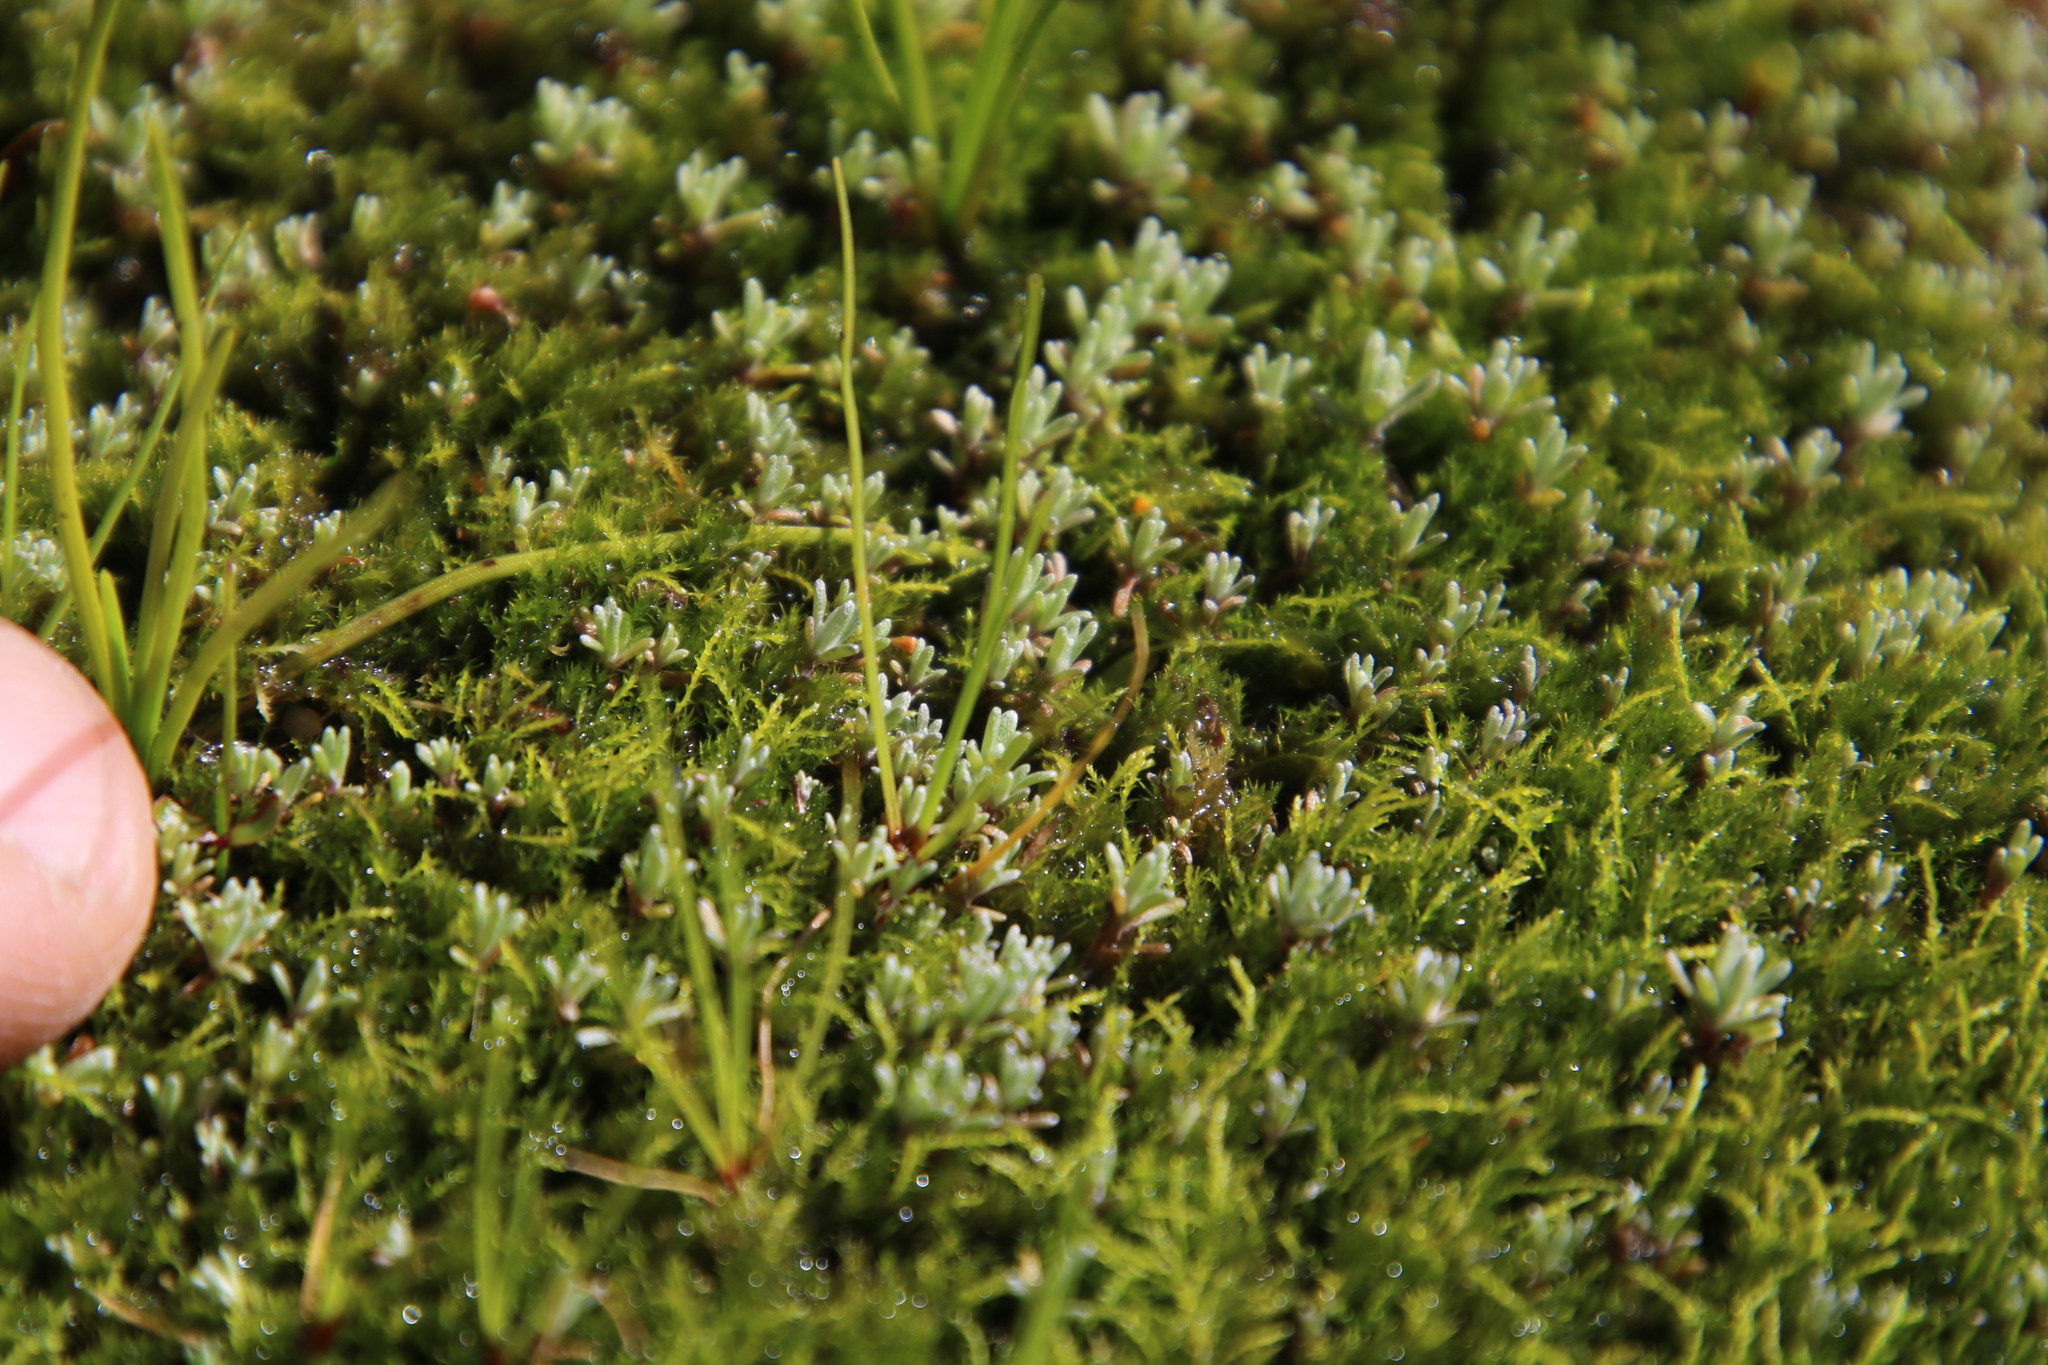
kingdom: Plantae
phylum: Bryophyta
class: Bryopsida
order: Dicranales
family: Ditrichaceae
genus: Pleuridium
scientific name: Pleuridium ecklonii
